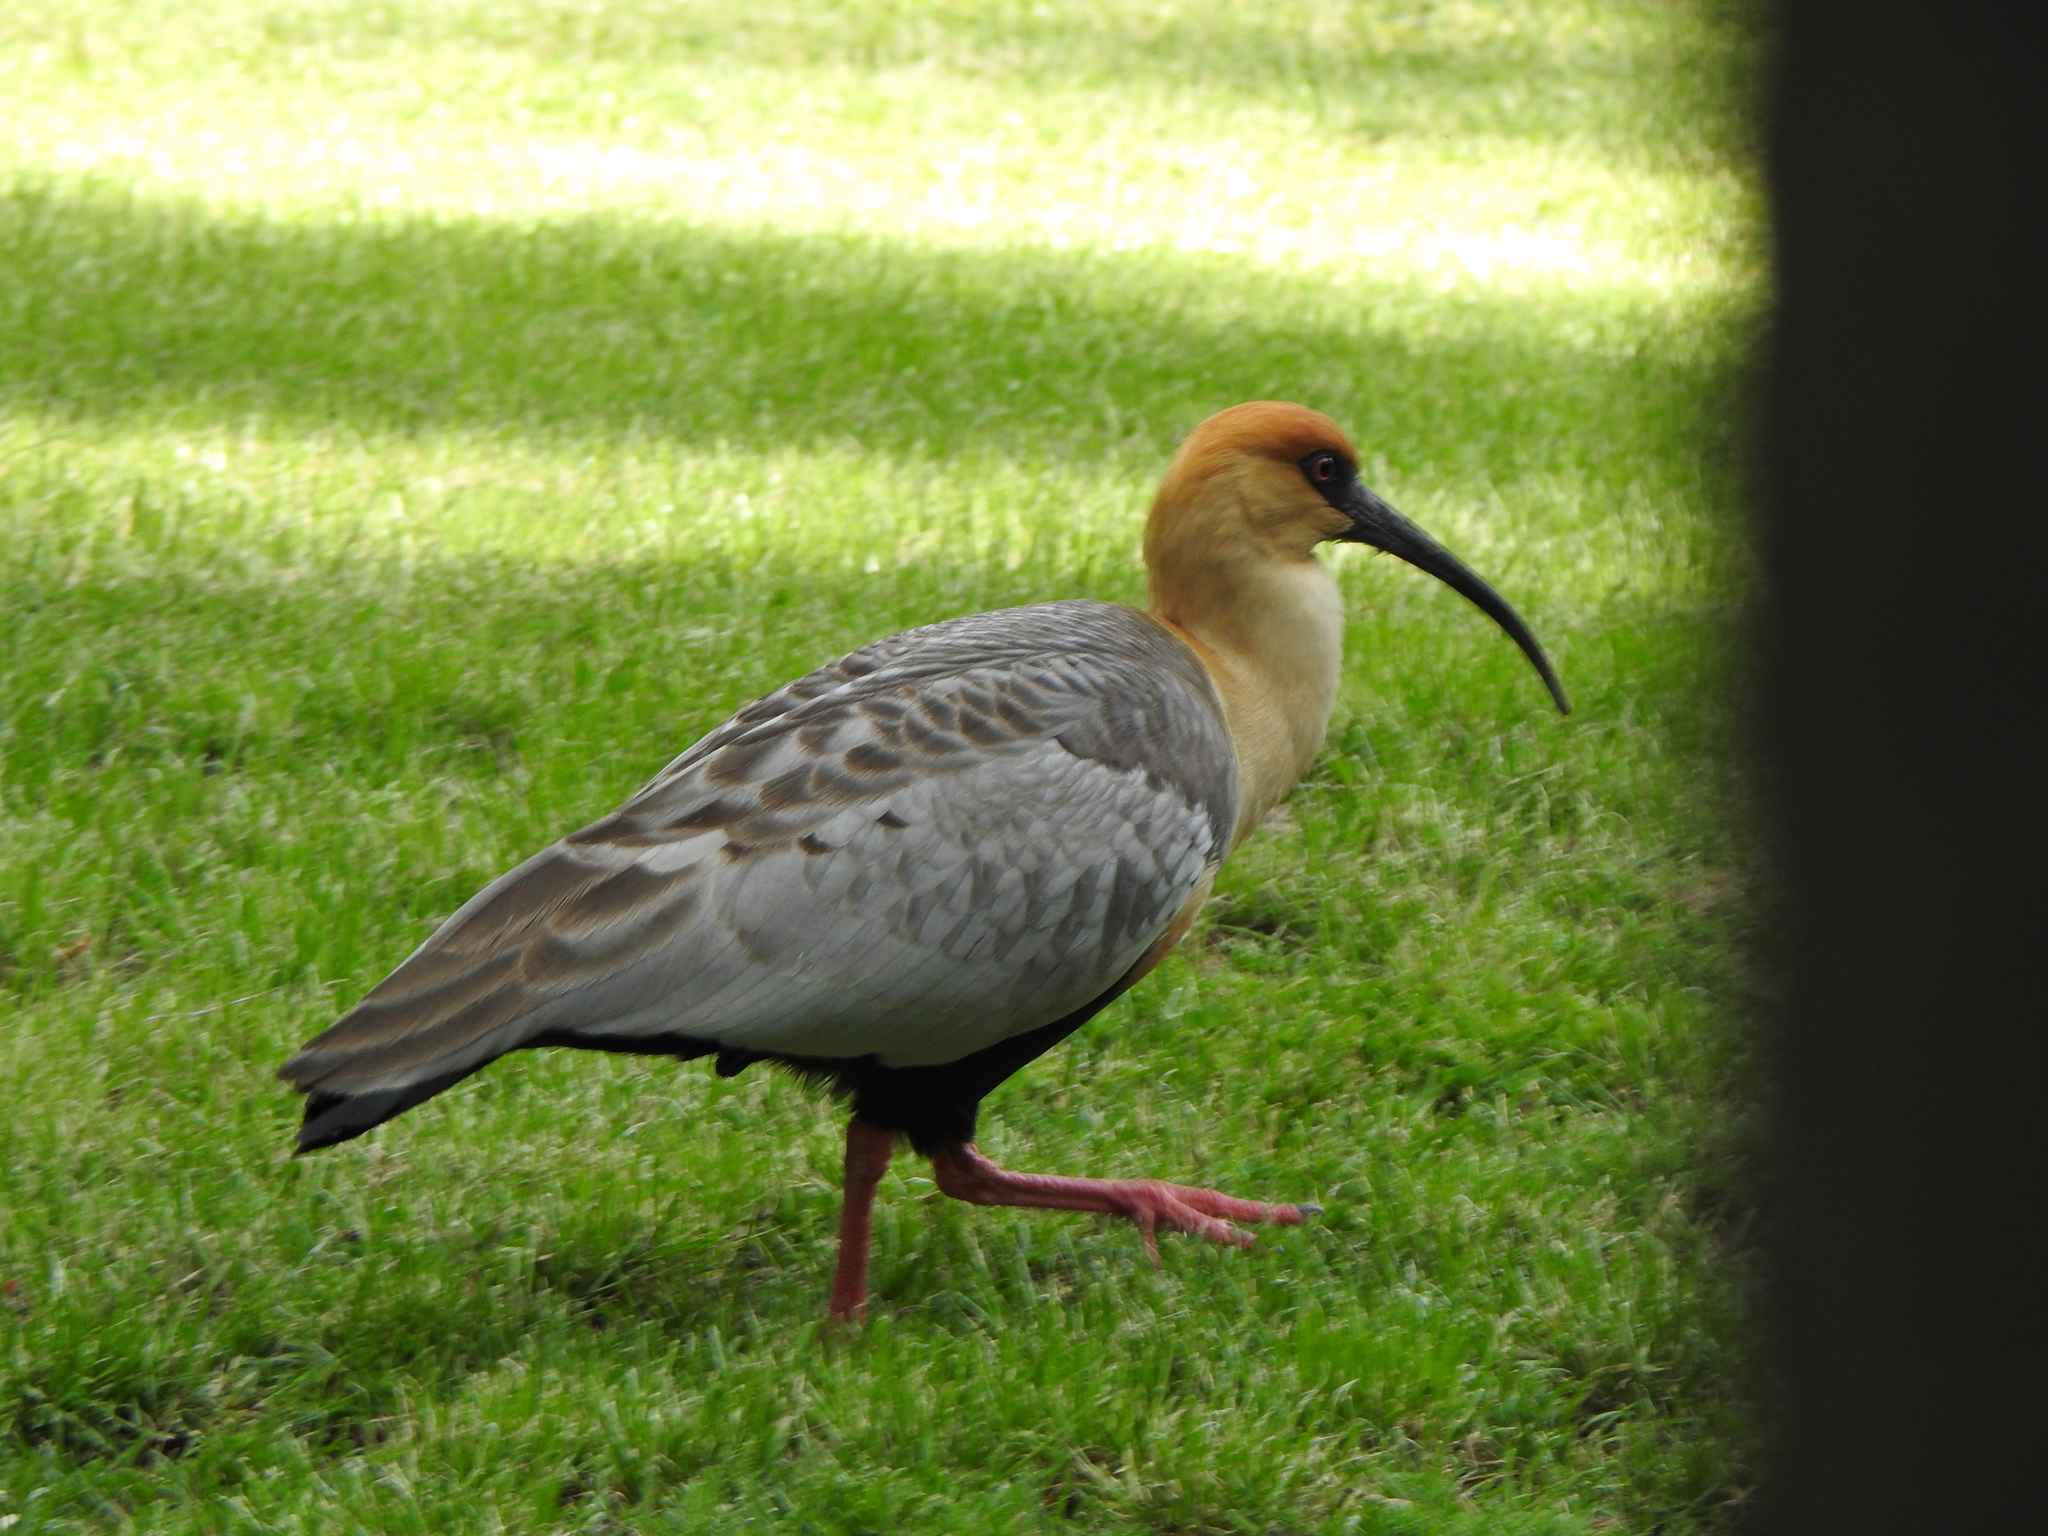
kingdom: Animalia
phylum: Chordata
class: Aves
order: Pelecaniformes
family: Threskiornithidae
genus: Theristicus
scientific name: Theristicus melanopis
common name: Black-faced ibis
